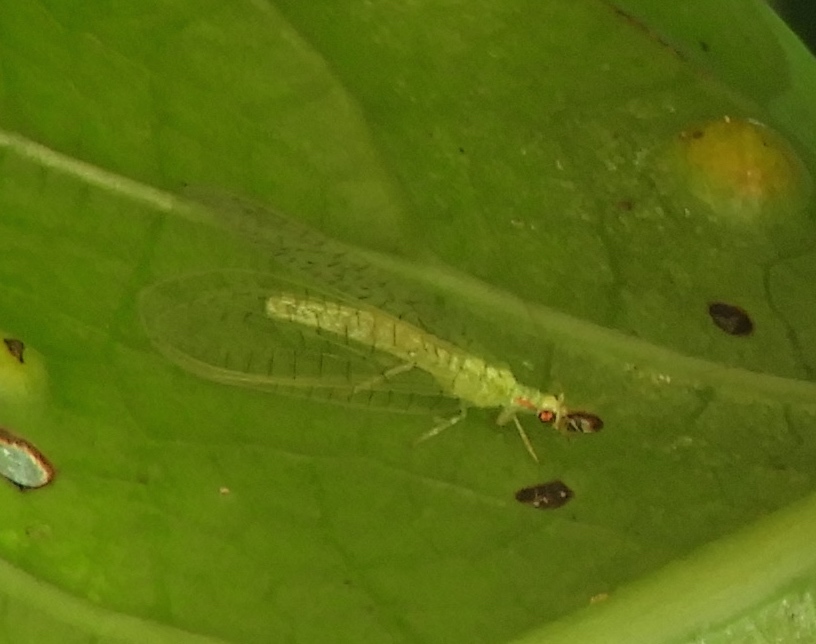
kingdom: Animalia
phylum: Arthropoda
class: Insecta
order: Neuroptera
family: Chrysopidae
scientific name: Chrysopidae
